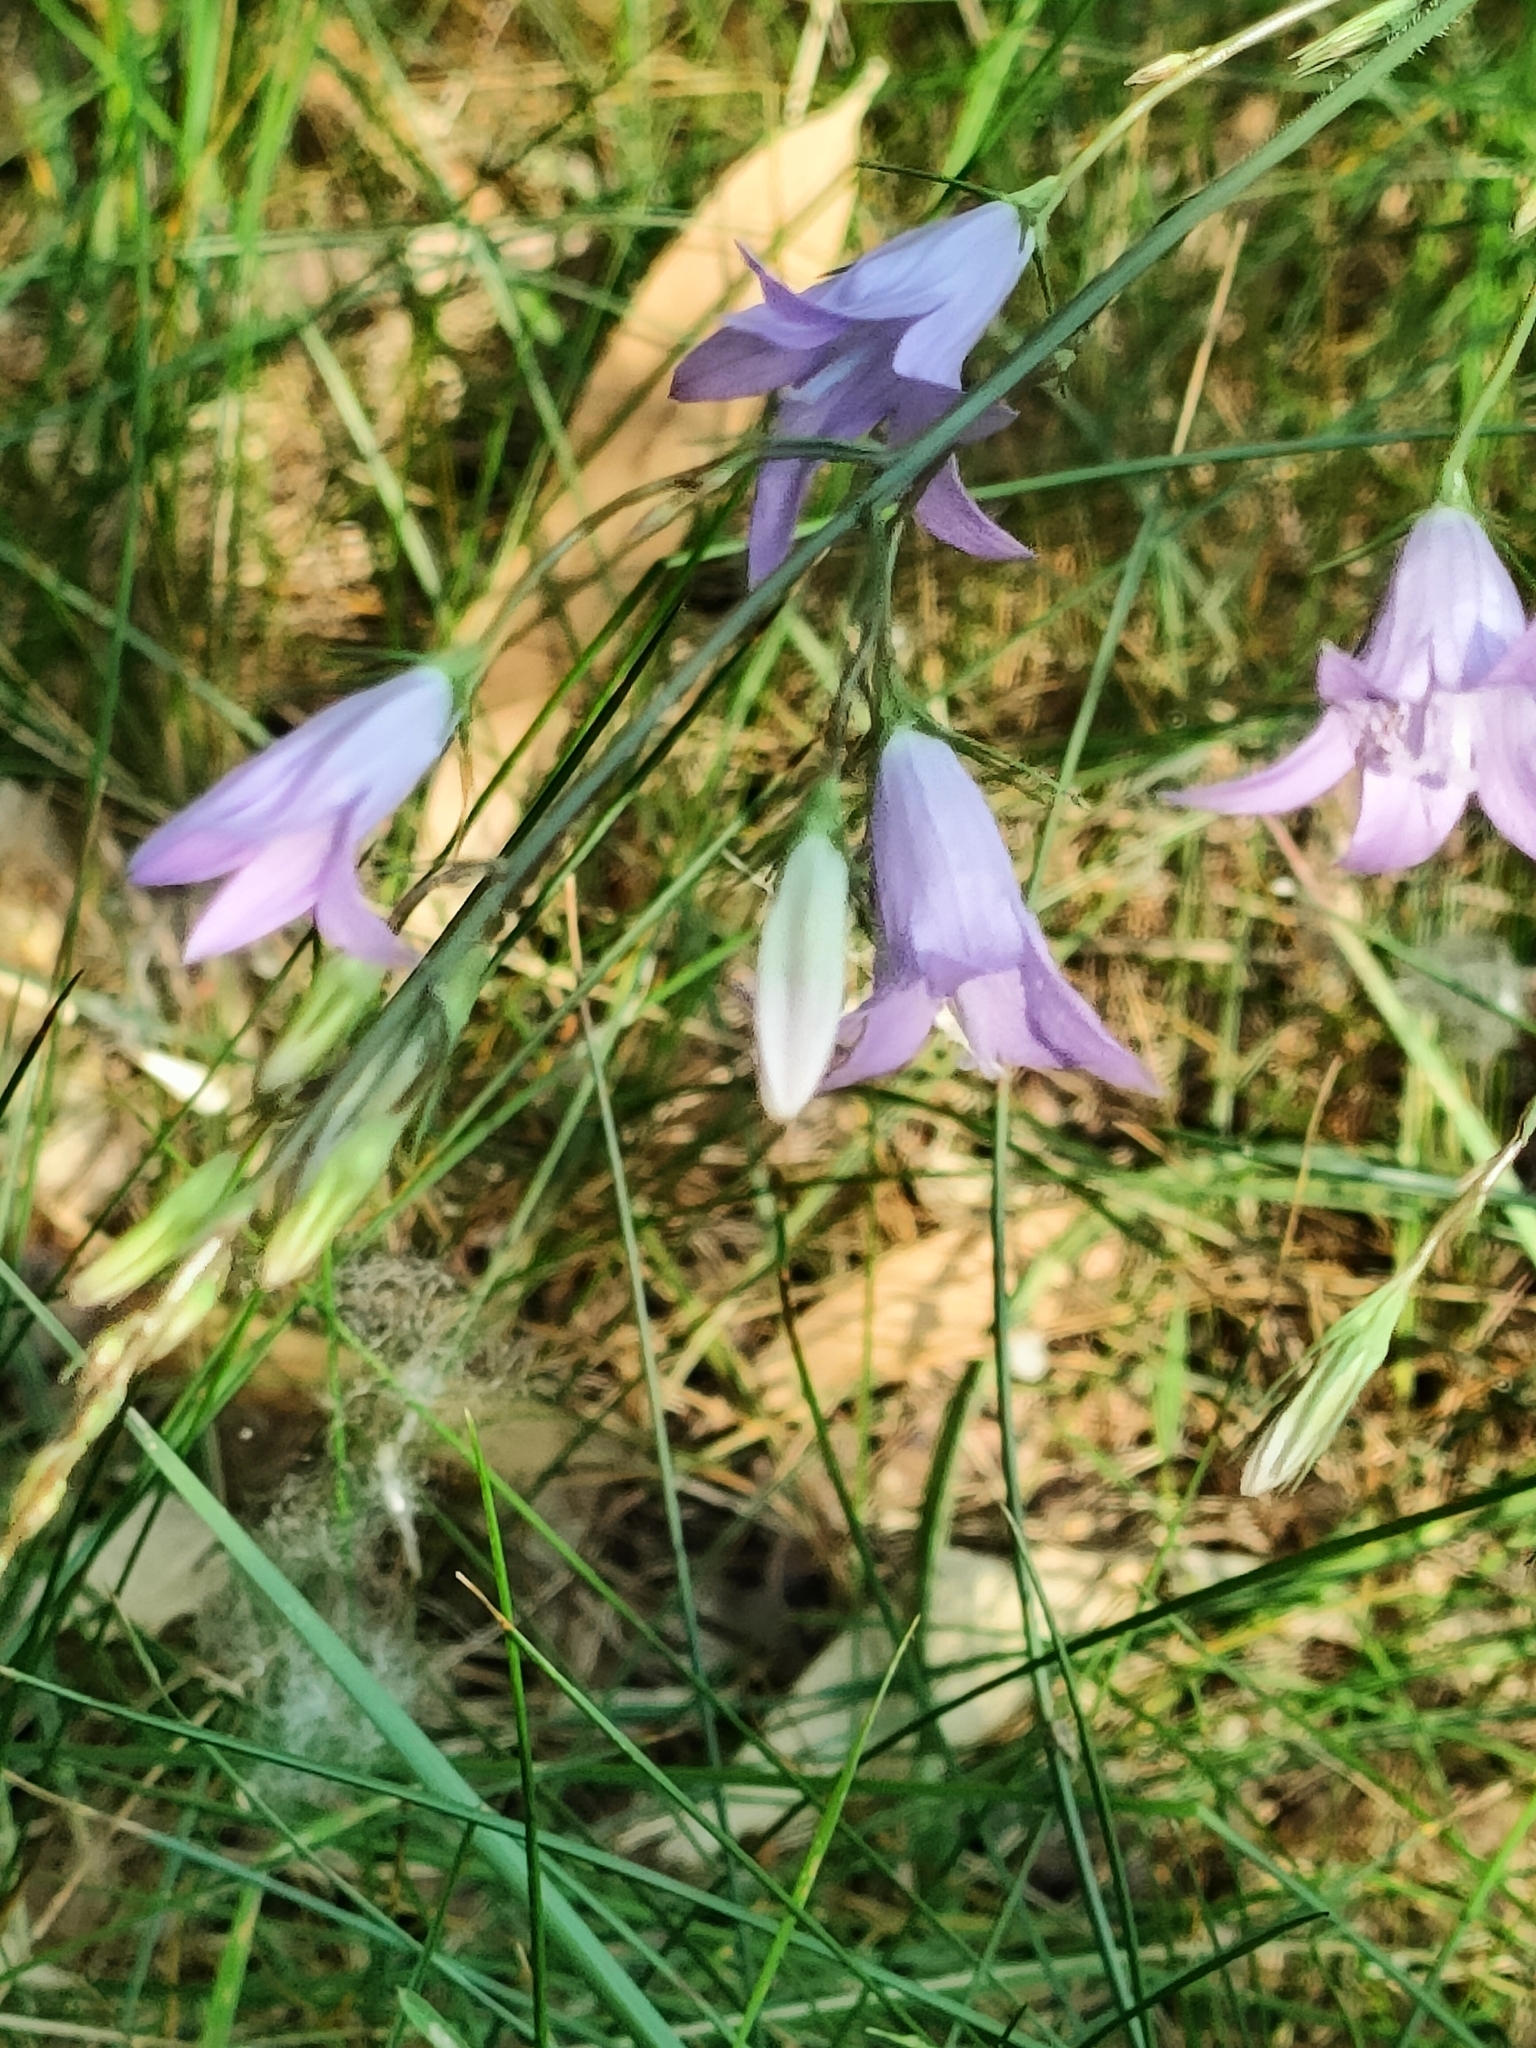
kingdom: Plantae
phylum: Tracheophyta
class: Magnoliopsida
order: Asterales
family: Campanulaceae
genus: Campanula
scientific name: Campanula rapunculus
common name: Rampion bellflower
